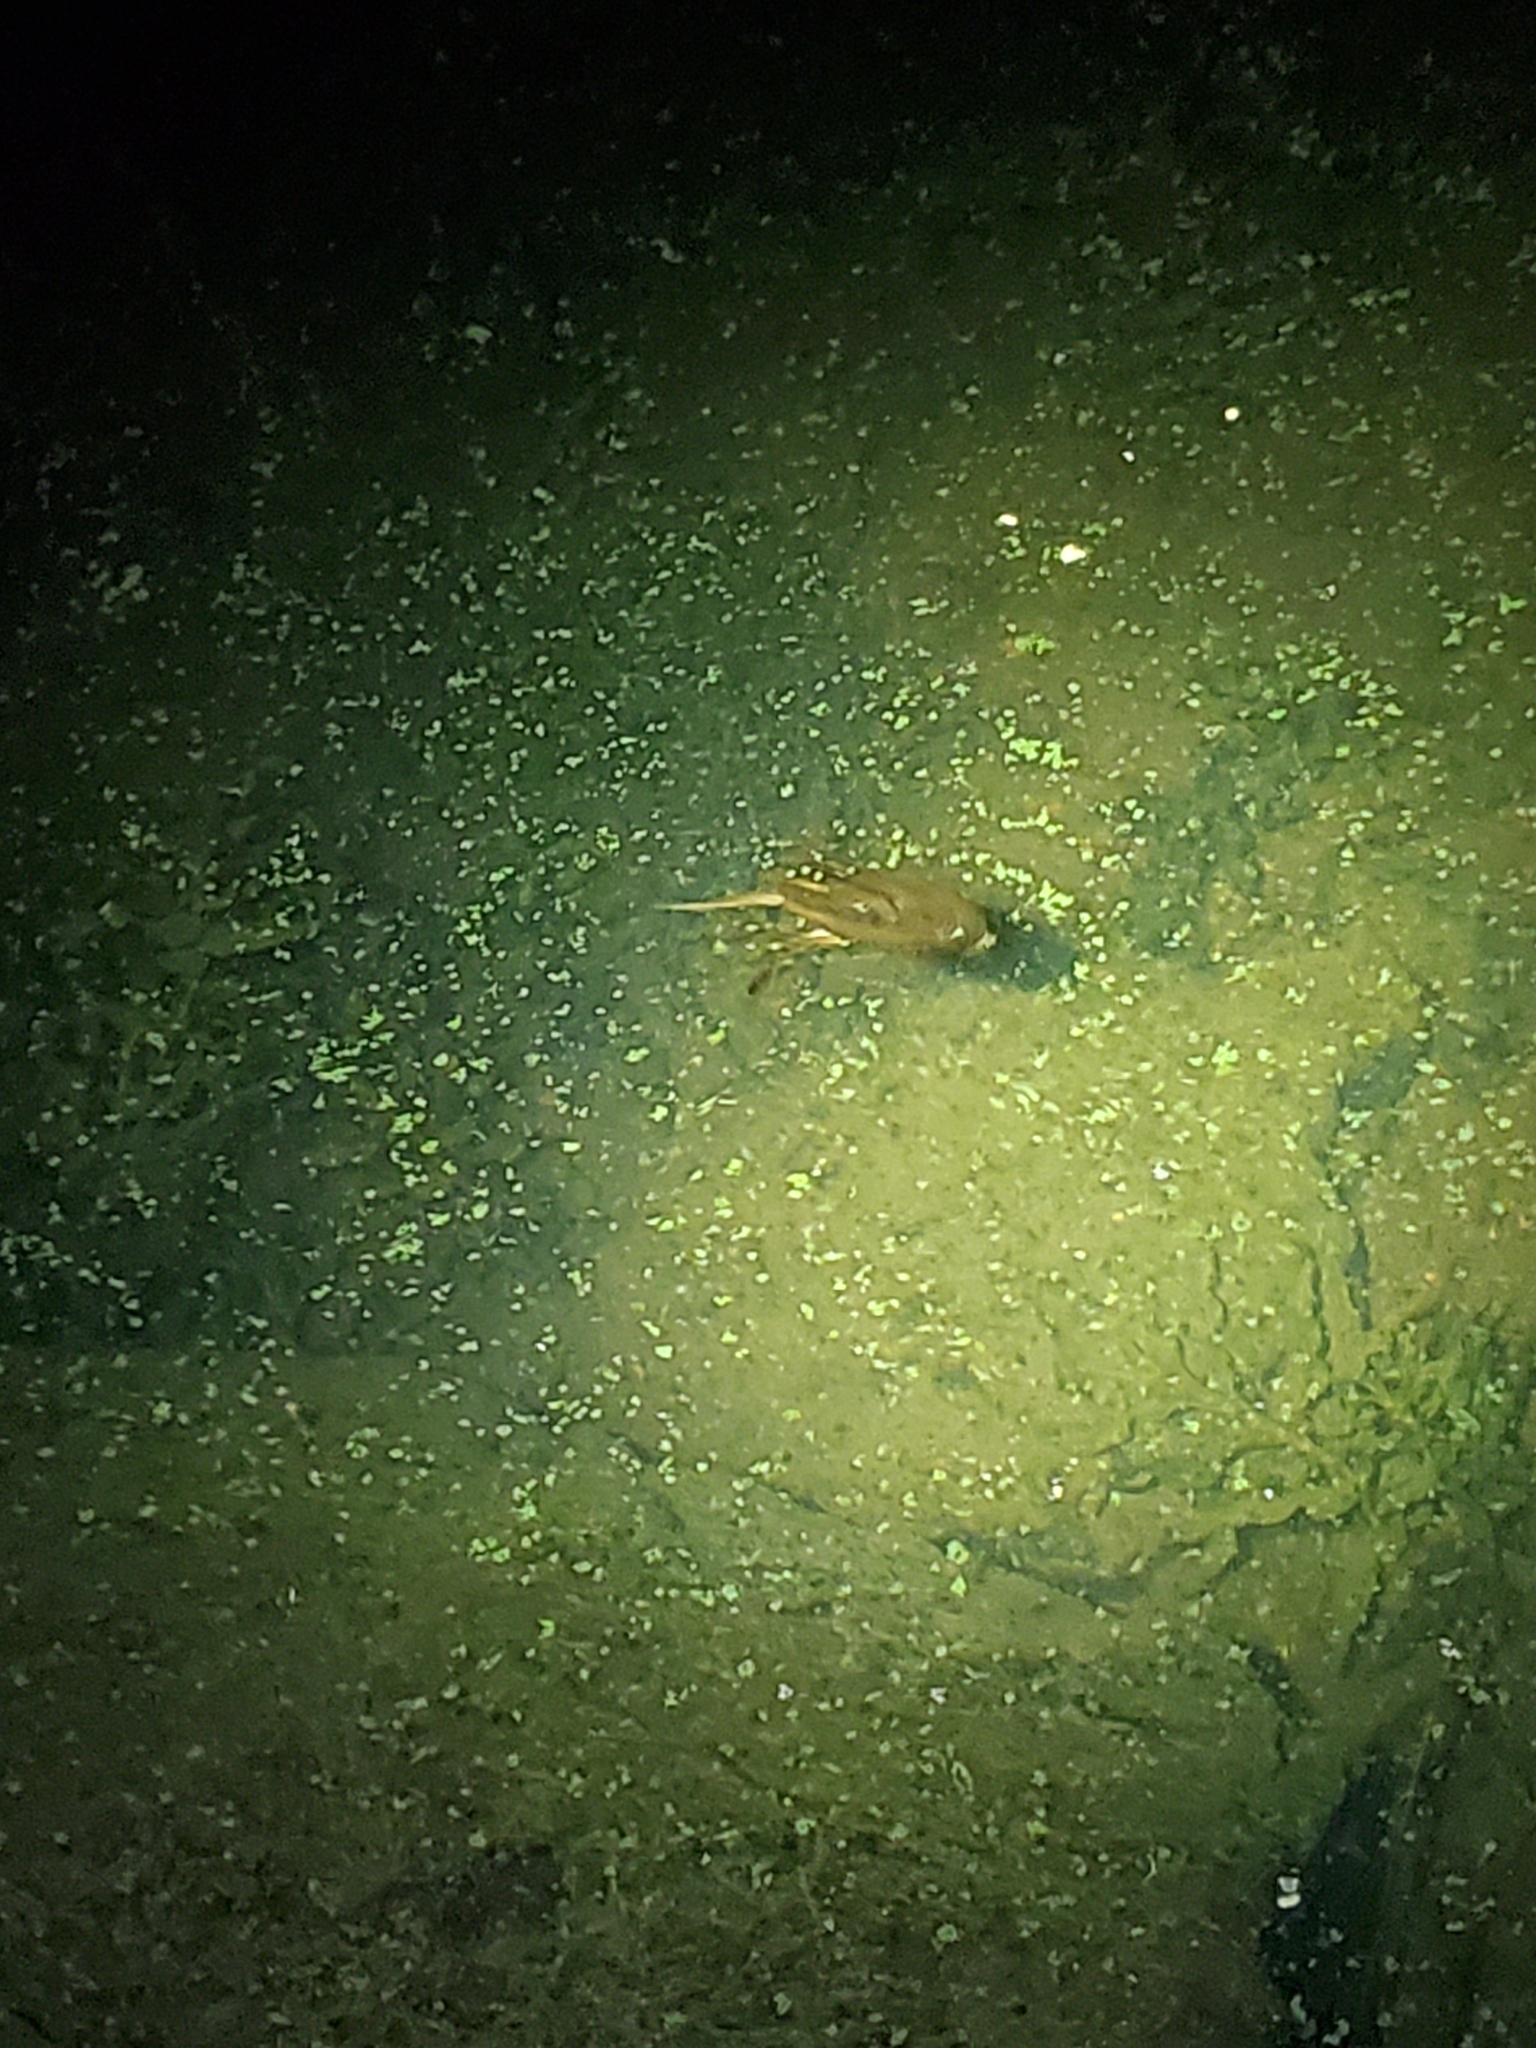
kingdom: Animalia
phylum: Arthropoda
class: Insecta
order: Hemiptera
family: Belostomatidae
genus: Lethocerus
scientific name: Lethocerus americanus
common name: Giant water bug
